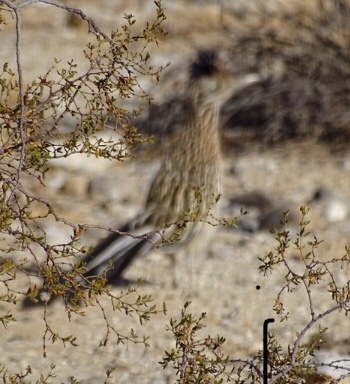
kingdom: Animalia
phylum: Chordata
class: Aves
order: Cuculiformes
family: Cuculidae
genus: Geococcyx
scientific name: Geococcyx californianus
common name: Greater roadrunner
